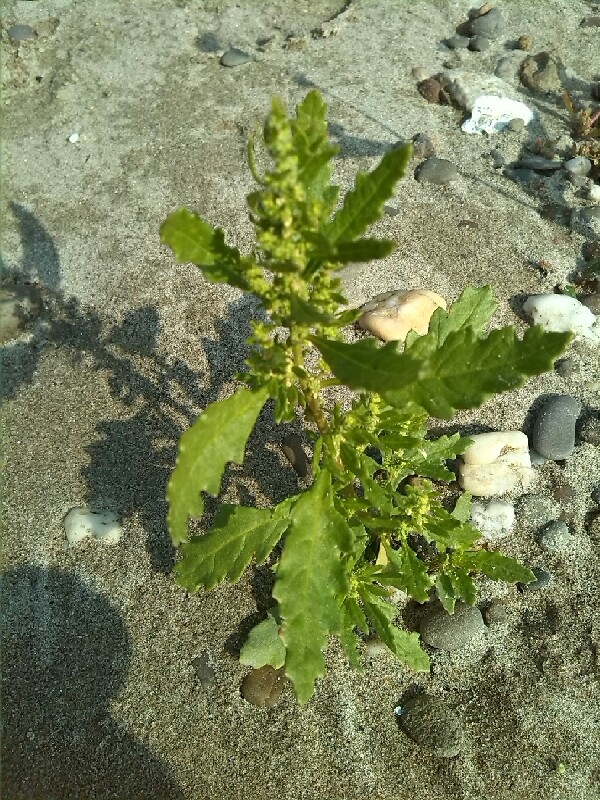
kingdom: Plantae
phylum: Tracheophyta
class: Magnoliopsida
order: Caryophyllales
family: Amaranthaceae
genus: Dysphania
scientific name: Dysphania ambrosioides
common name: Wormseed
